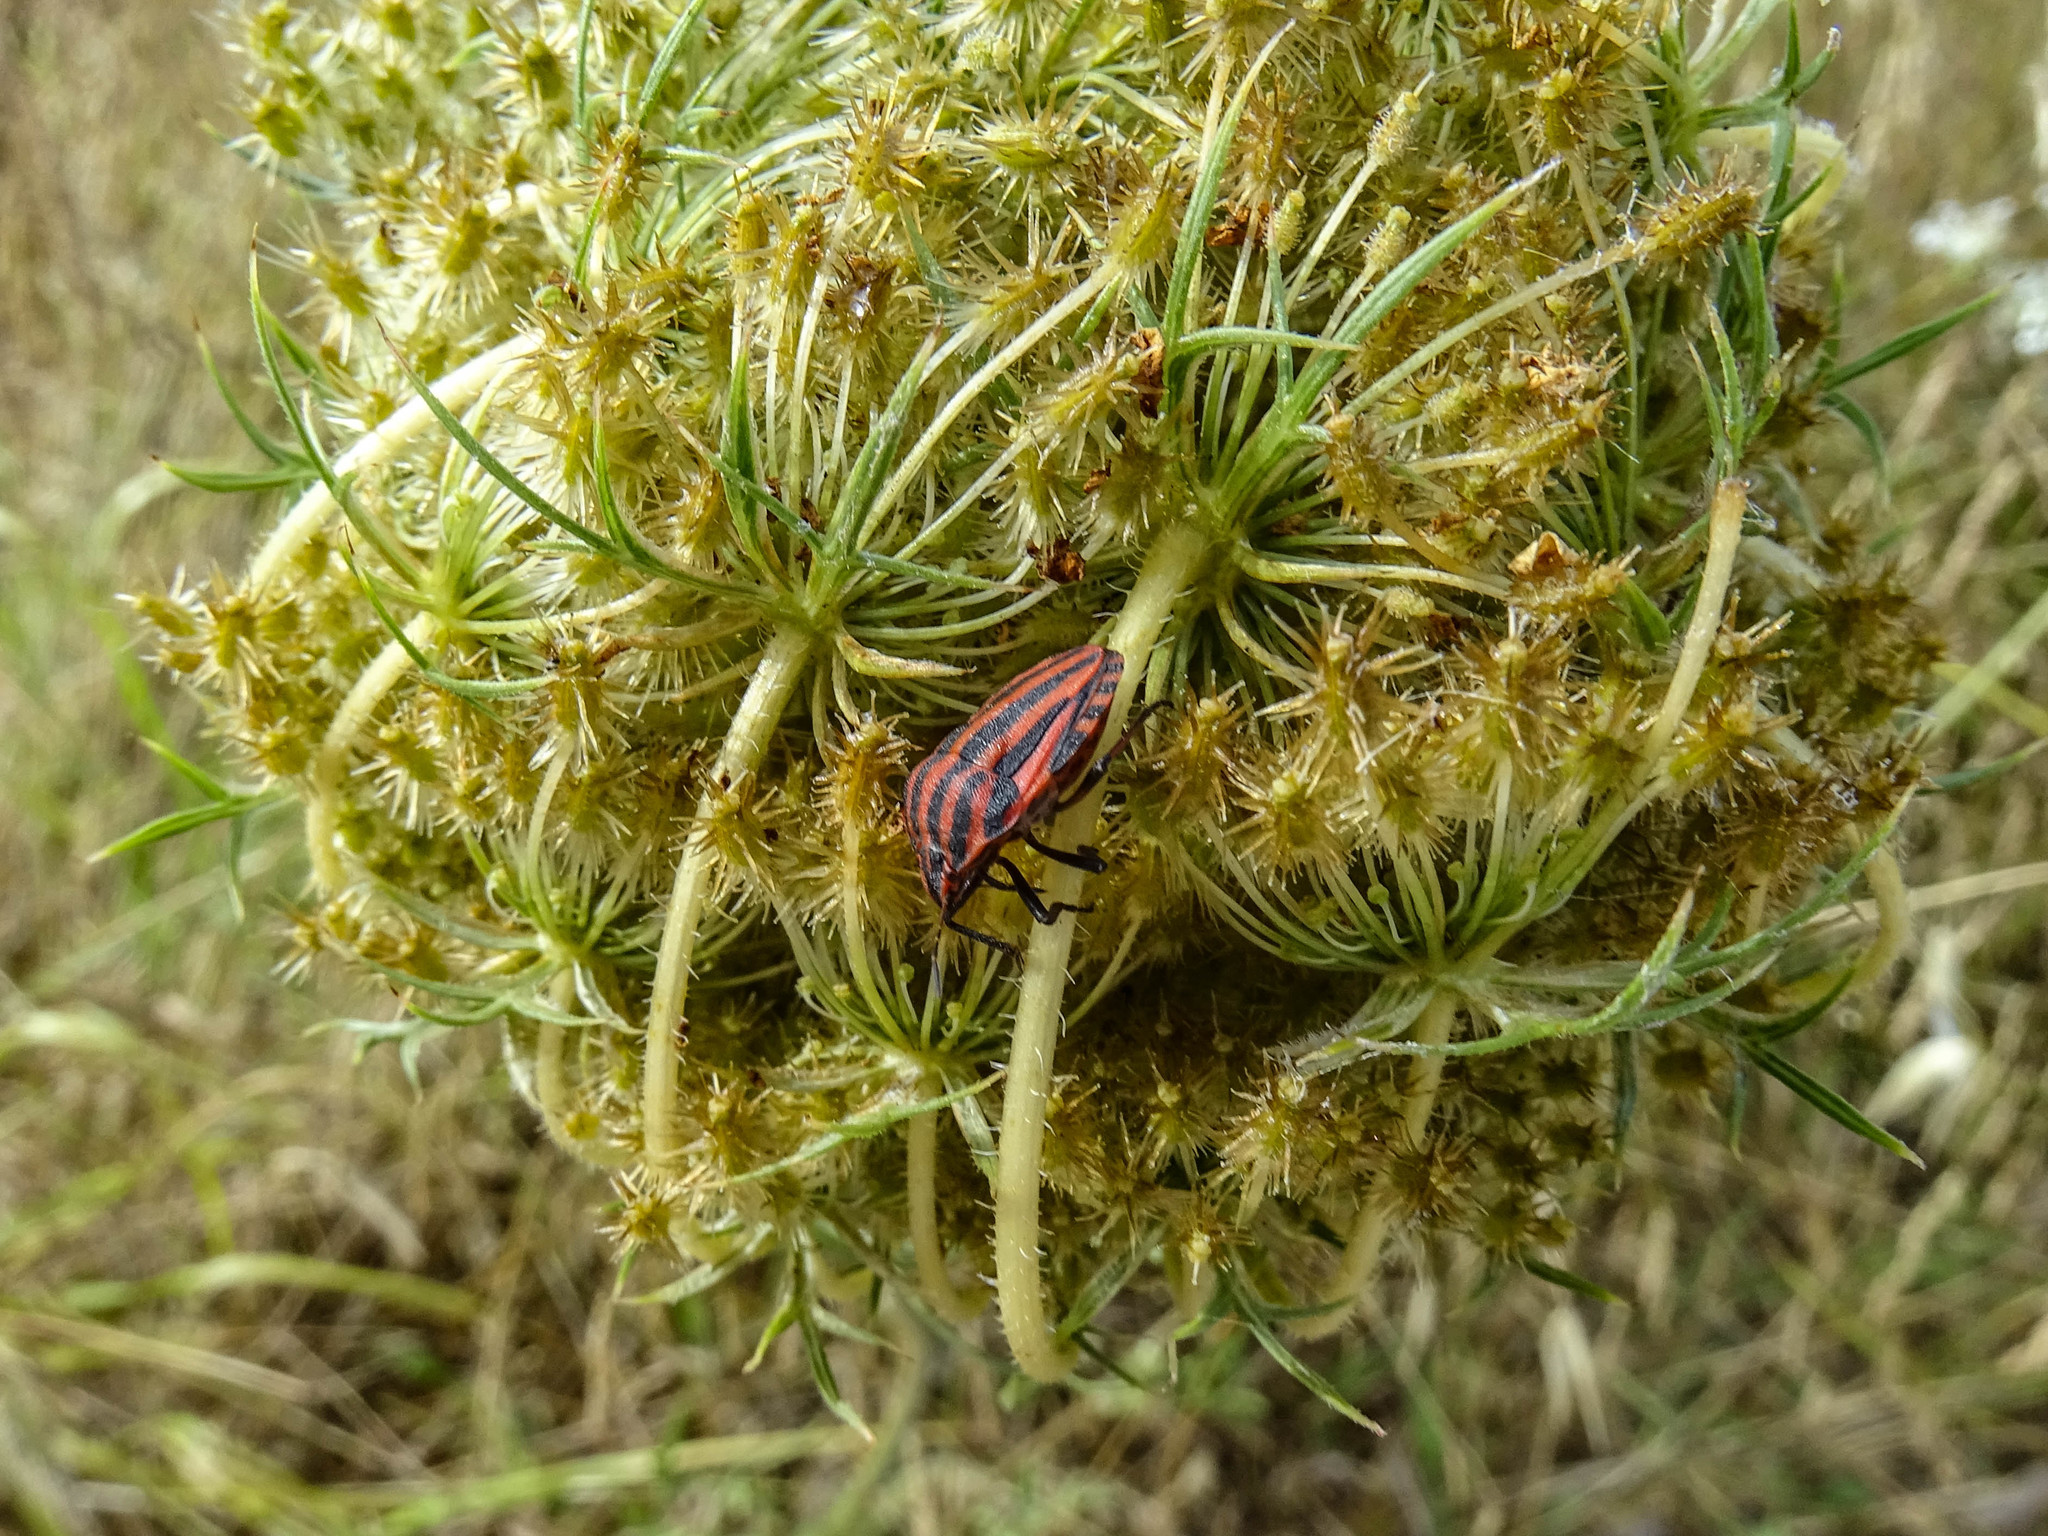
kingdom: Animalia
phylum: Arthropoda
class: Insecta
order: Hemiptera
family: Pentatomidae
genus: Graphosoma
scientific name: Graphosoma italicum
